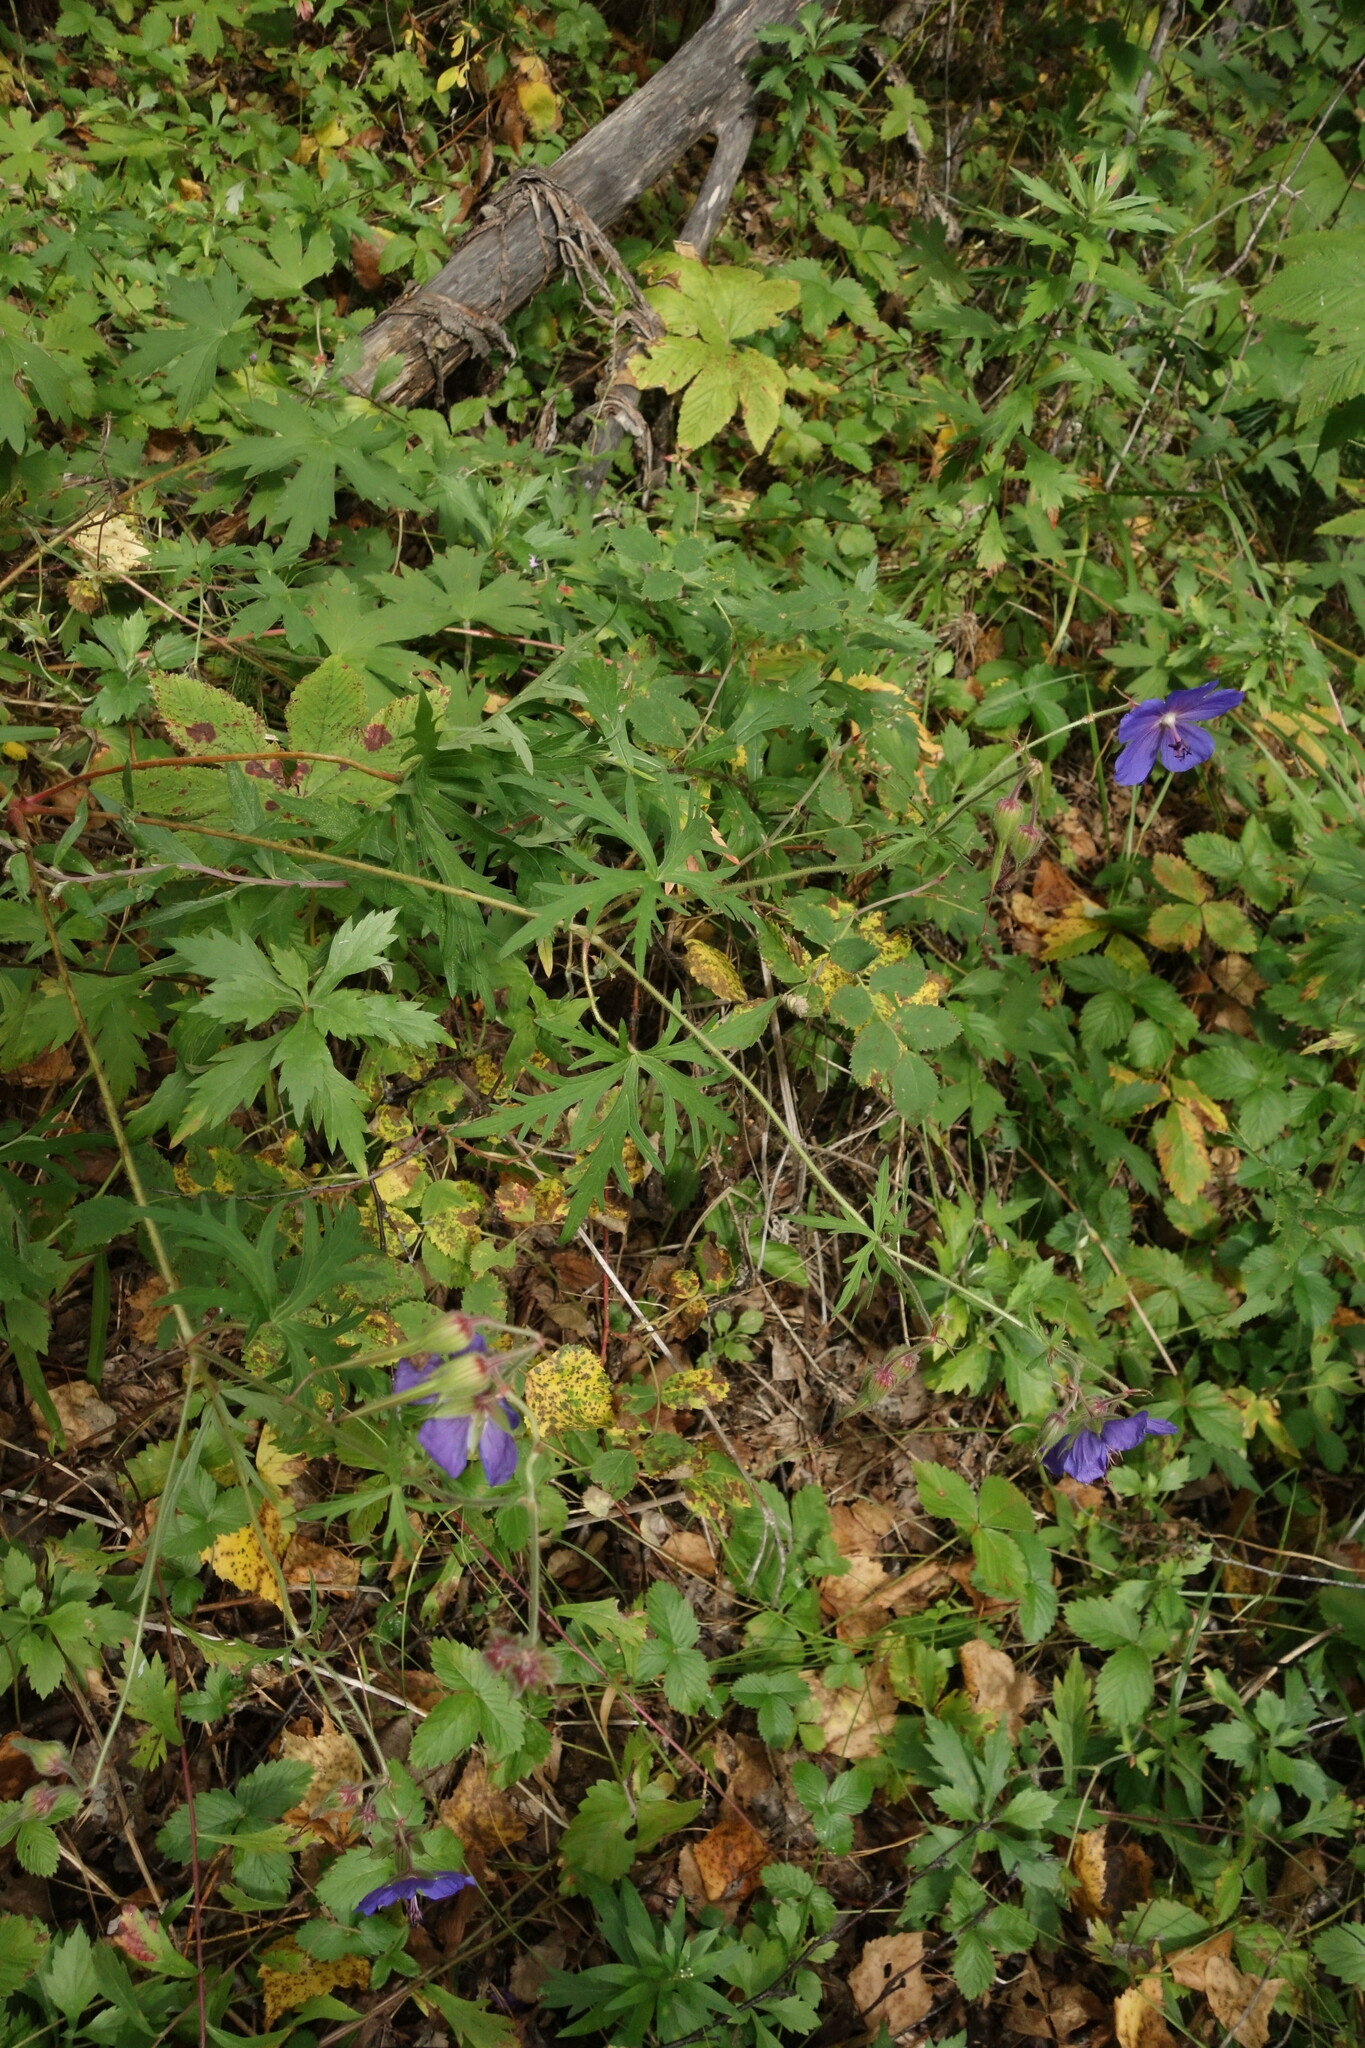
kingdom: Plantae
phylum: Tracheophyta
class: Magnoliopsida
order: Geraniales
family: Geraniaceae
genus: Geranium
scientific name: Geranium pratense
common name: Meadow crane's-bill
